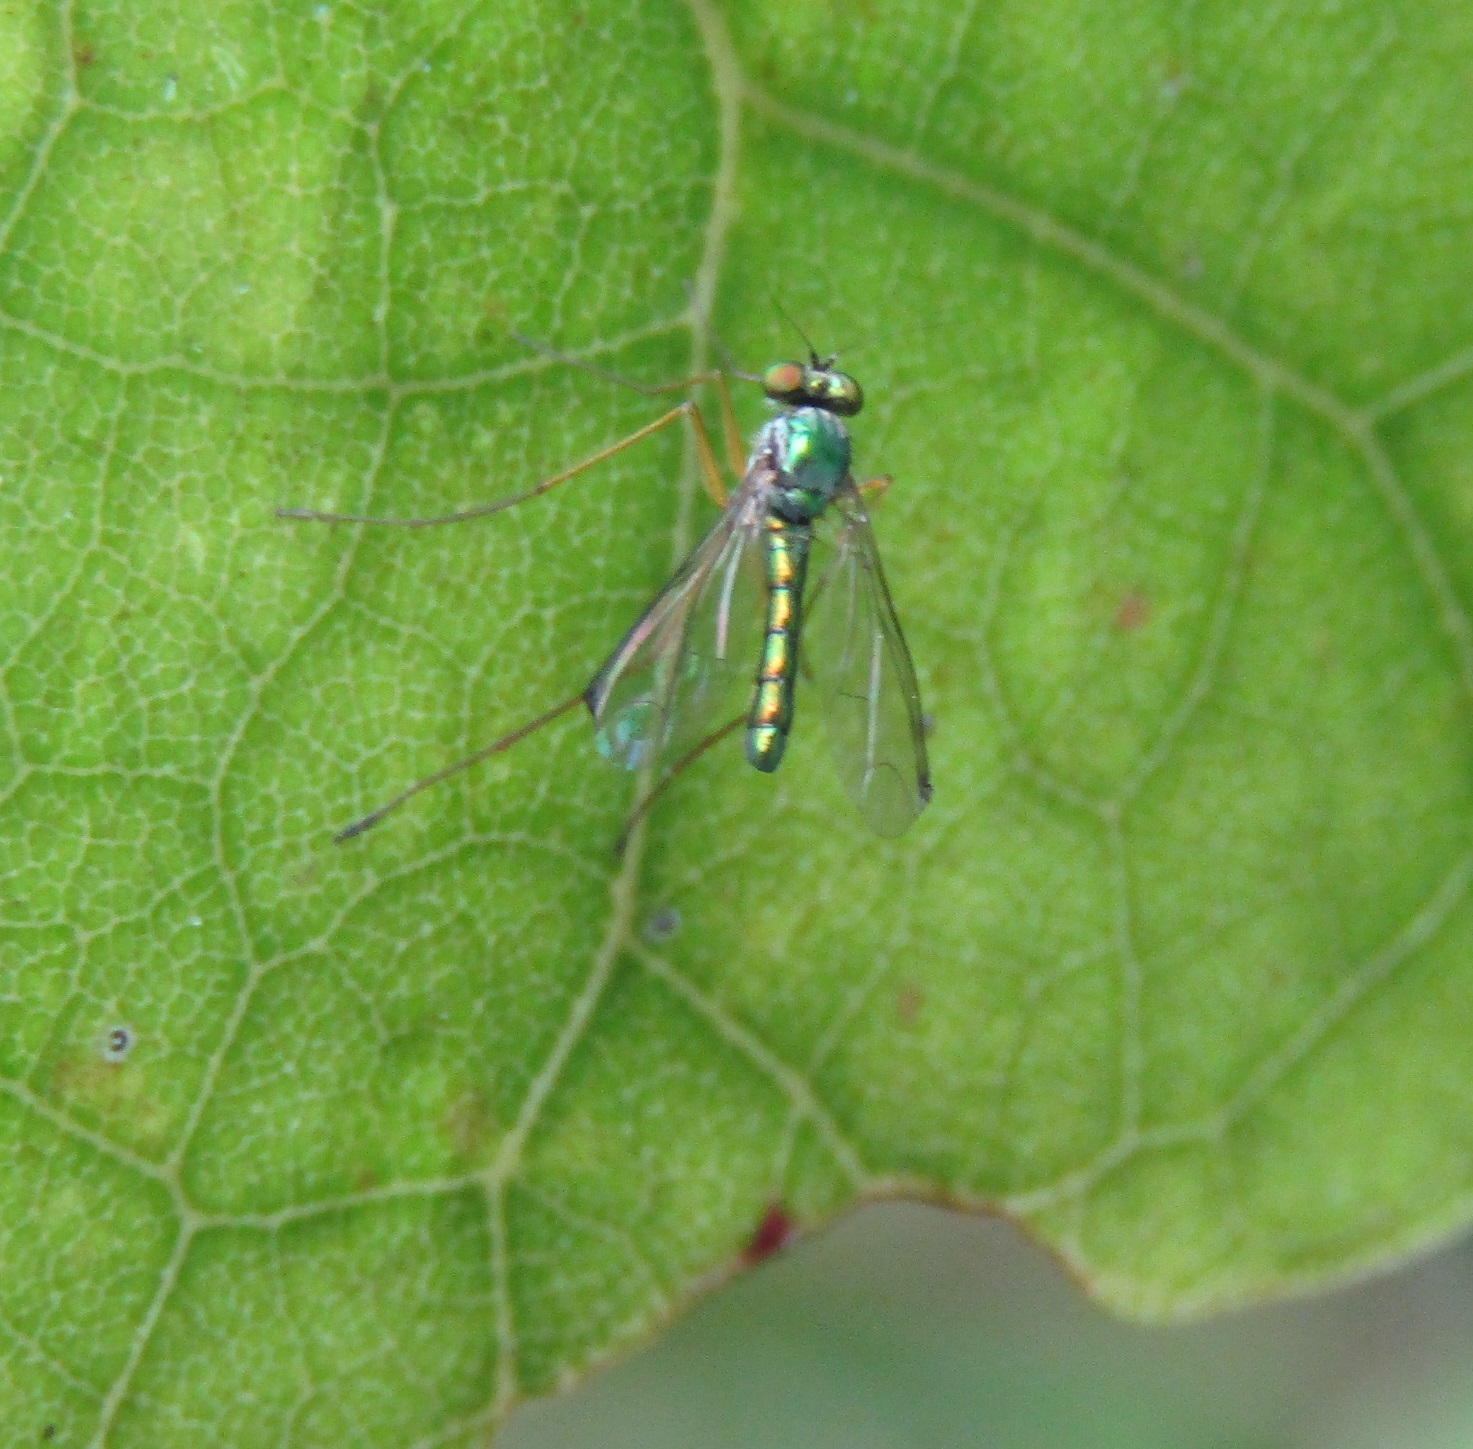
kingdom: Animalia
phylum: Arthropoda
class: Insecta
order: Diptera
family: Dolichopodidae
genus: Parentia
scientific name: Parentia anomalicosta
